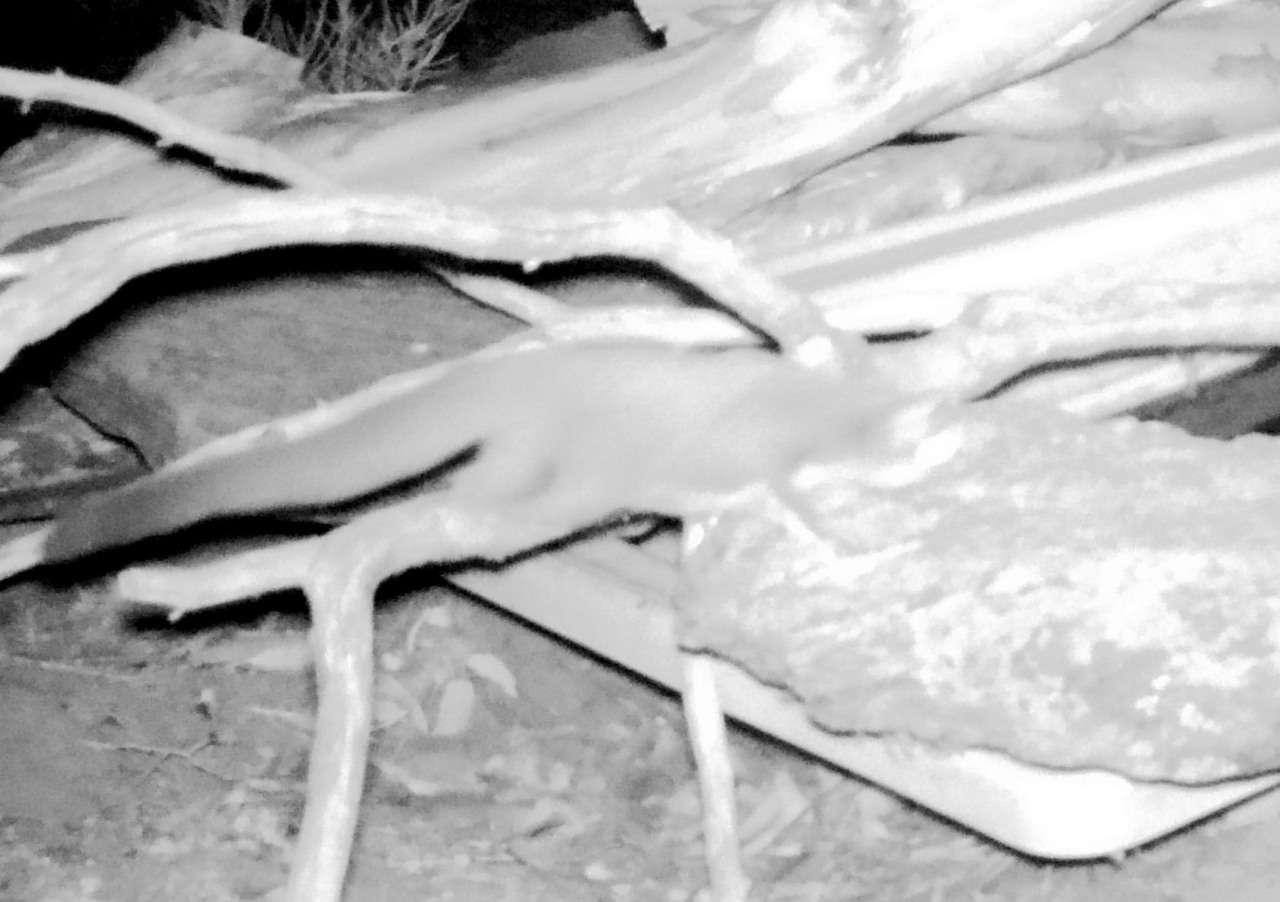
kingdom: Animalia
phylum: Chordata
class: Mammalia
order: Diprotodontia
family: Petauridae
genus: Petaurus
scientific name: Petaurus breviceps
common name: Sugar glider
